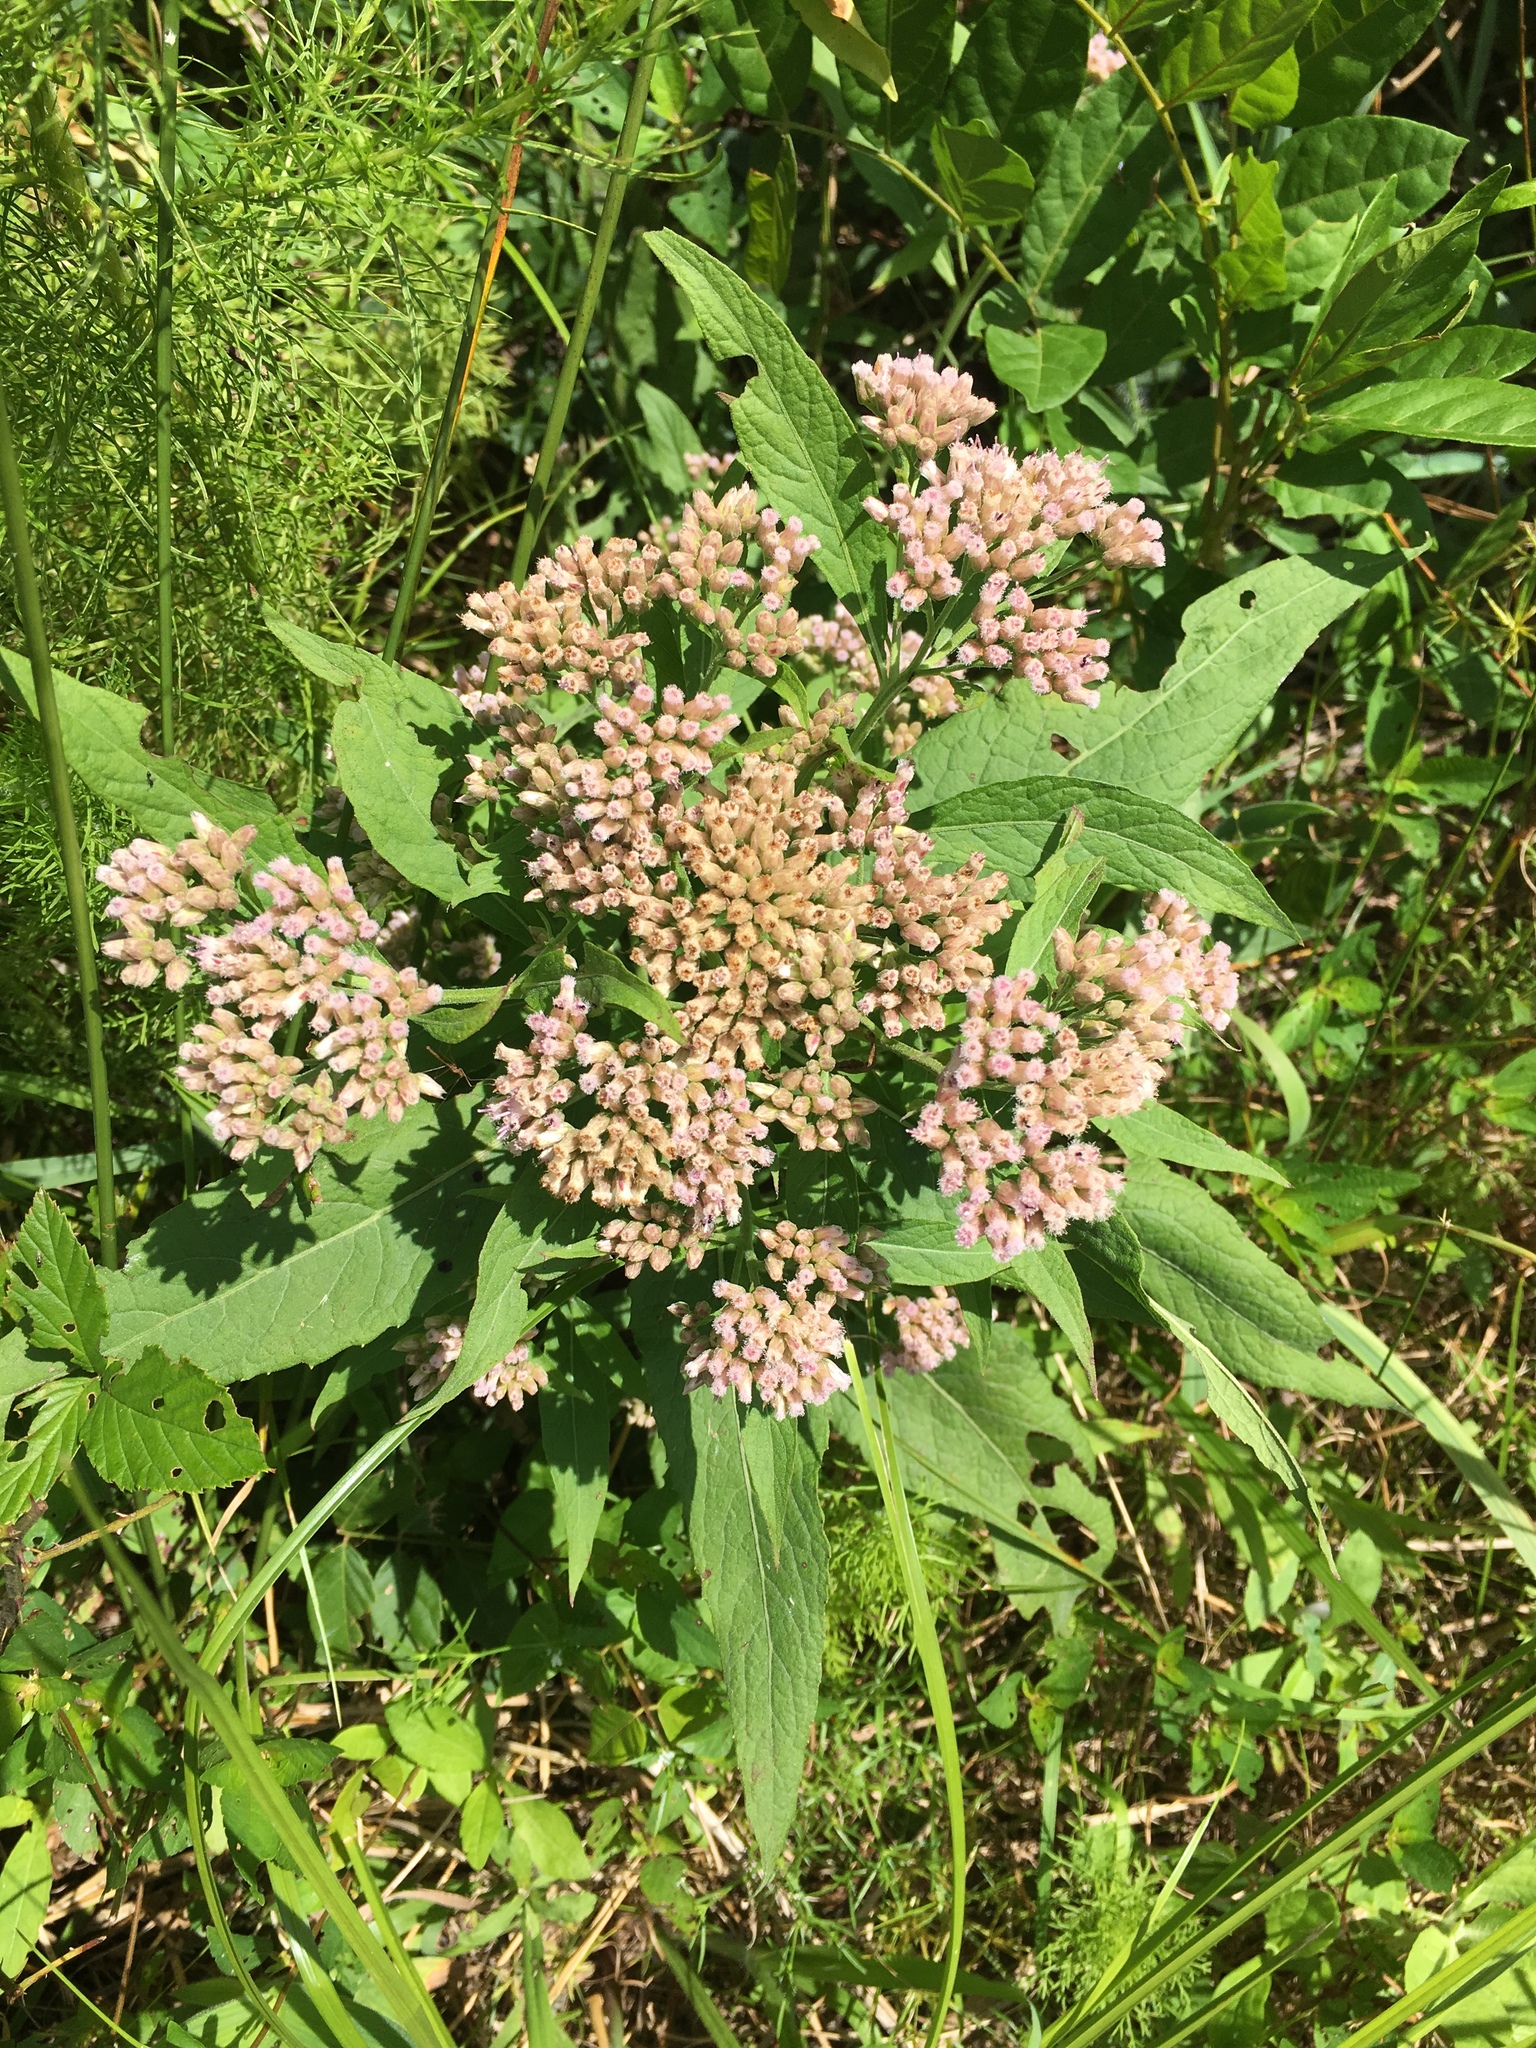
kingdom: Plantae
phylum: Tracheophyta
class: Magnoliopsida
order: Asterales
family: Asteraceae
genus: Pluchea
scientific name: Pluchea camphorata
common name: Camphor pluchea
